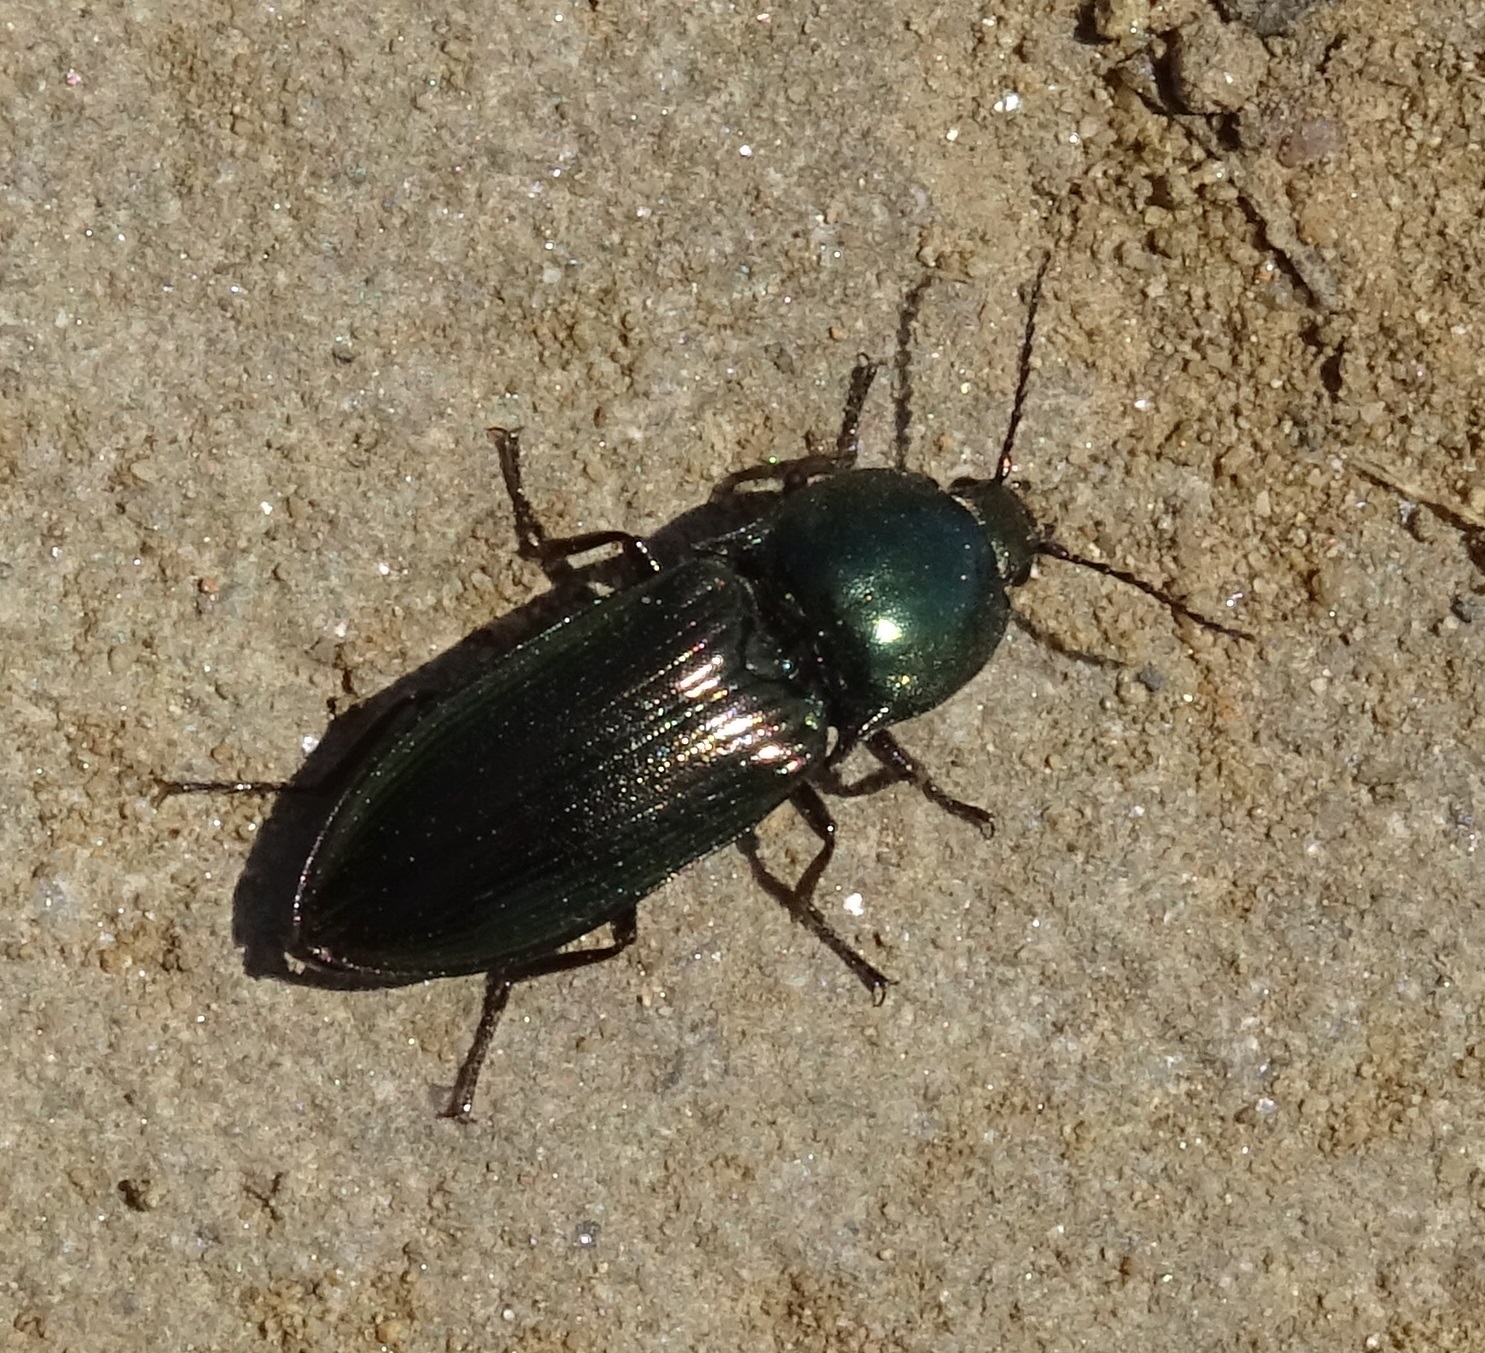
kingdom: Animalia
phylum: Arthropoda
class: Insecta
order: Coleoptera
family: Elateridae
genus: Selatosomus
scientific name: Selatosomus aeneus
